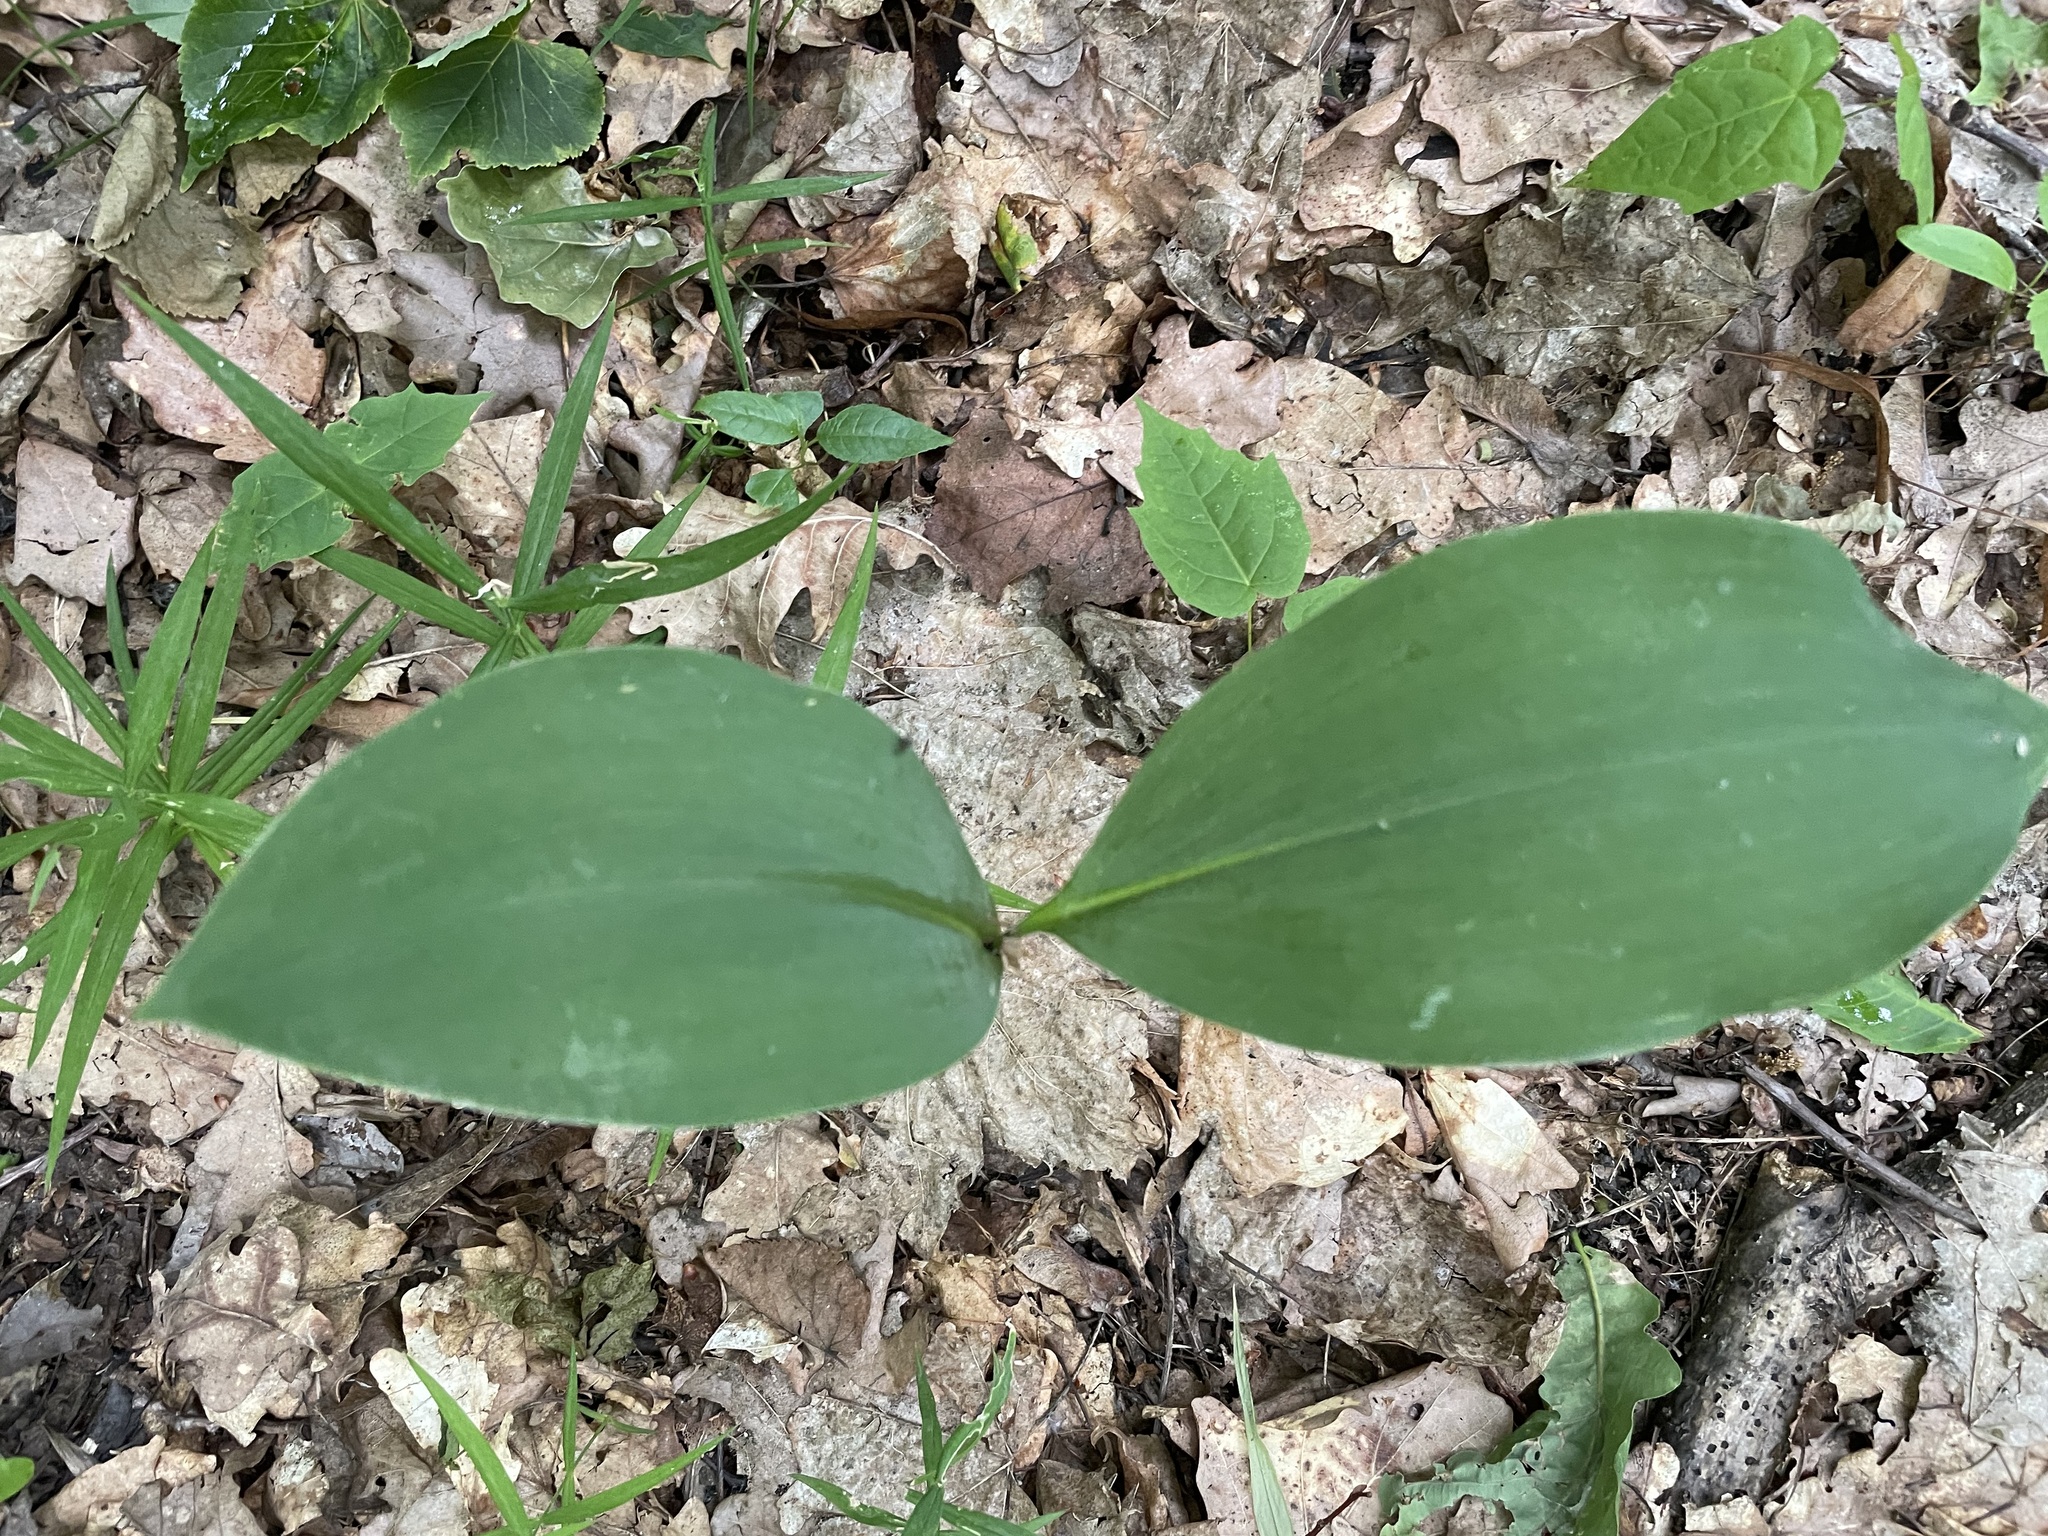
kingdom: Plantae
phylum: Tracheophyta
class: Liliopsida
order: Asparagales
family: Asparagaceae
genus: Convallaria
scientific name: Convallaria majalis
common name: Lily-of-the-valley
